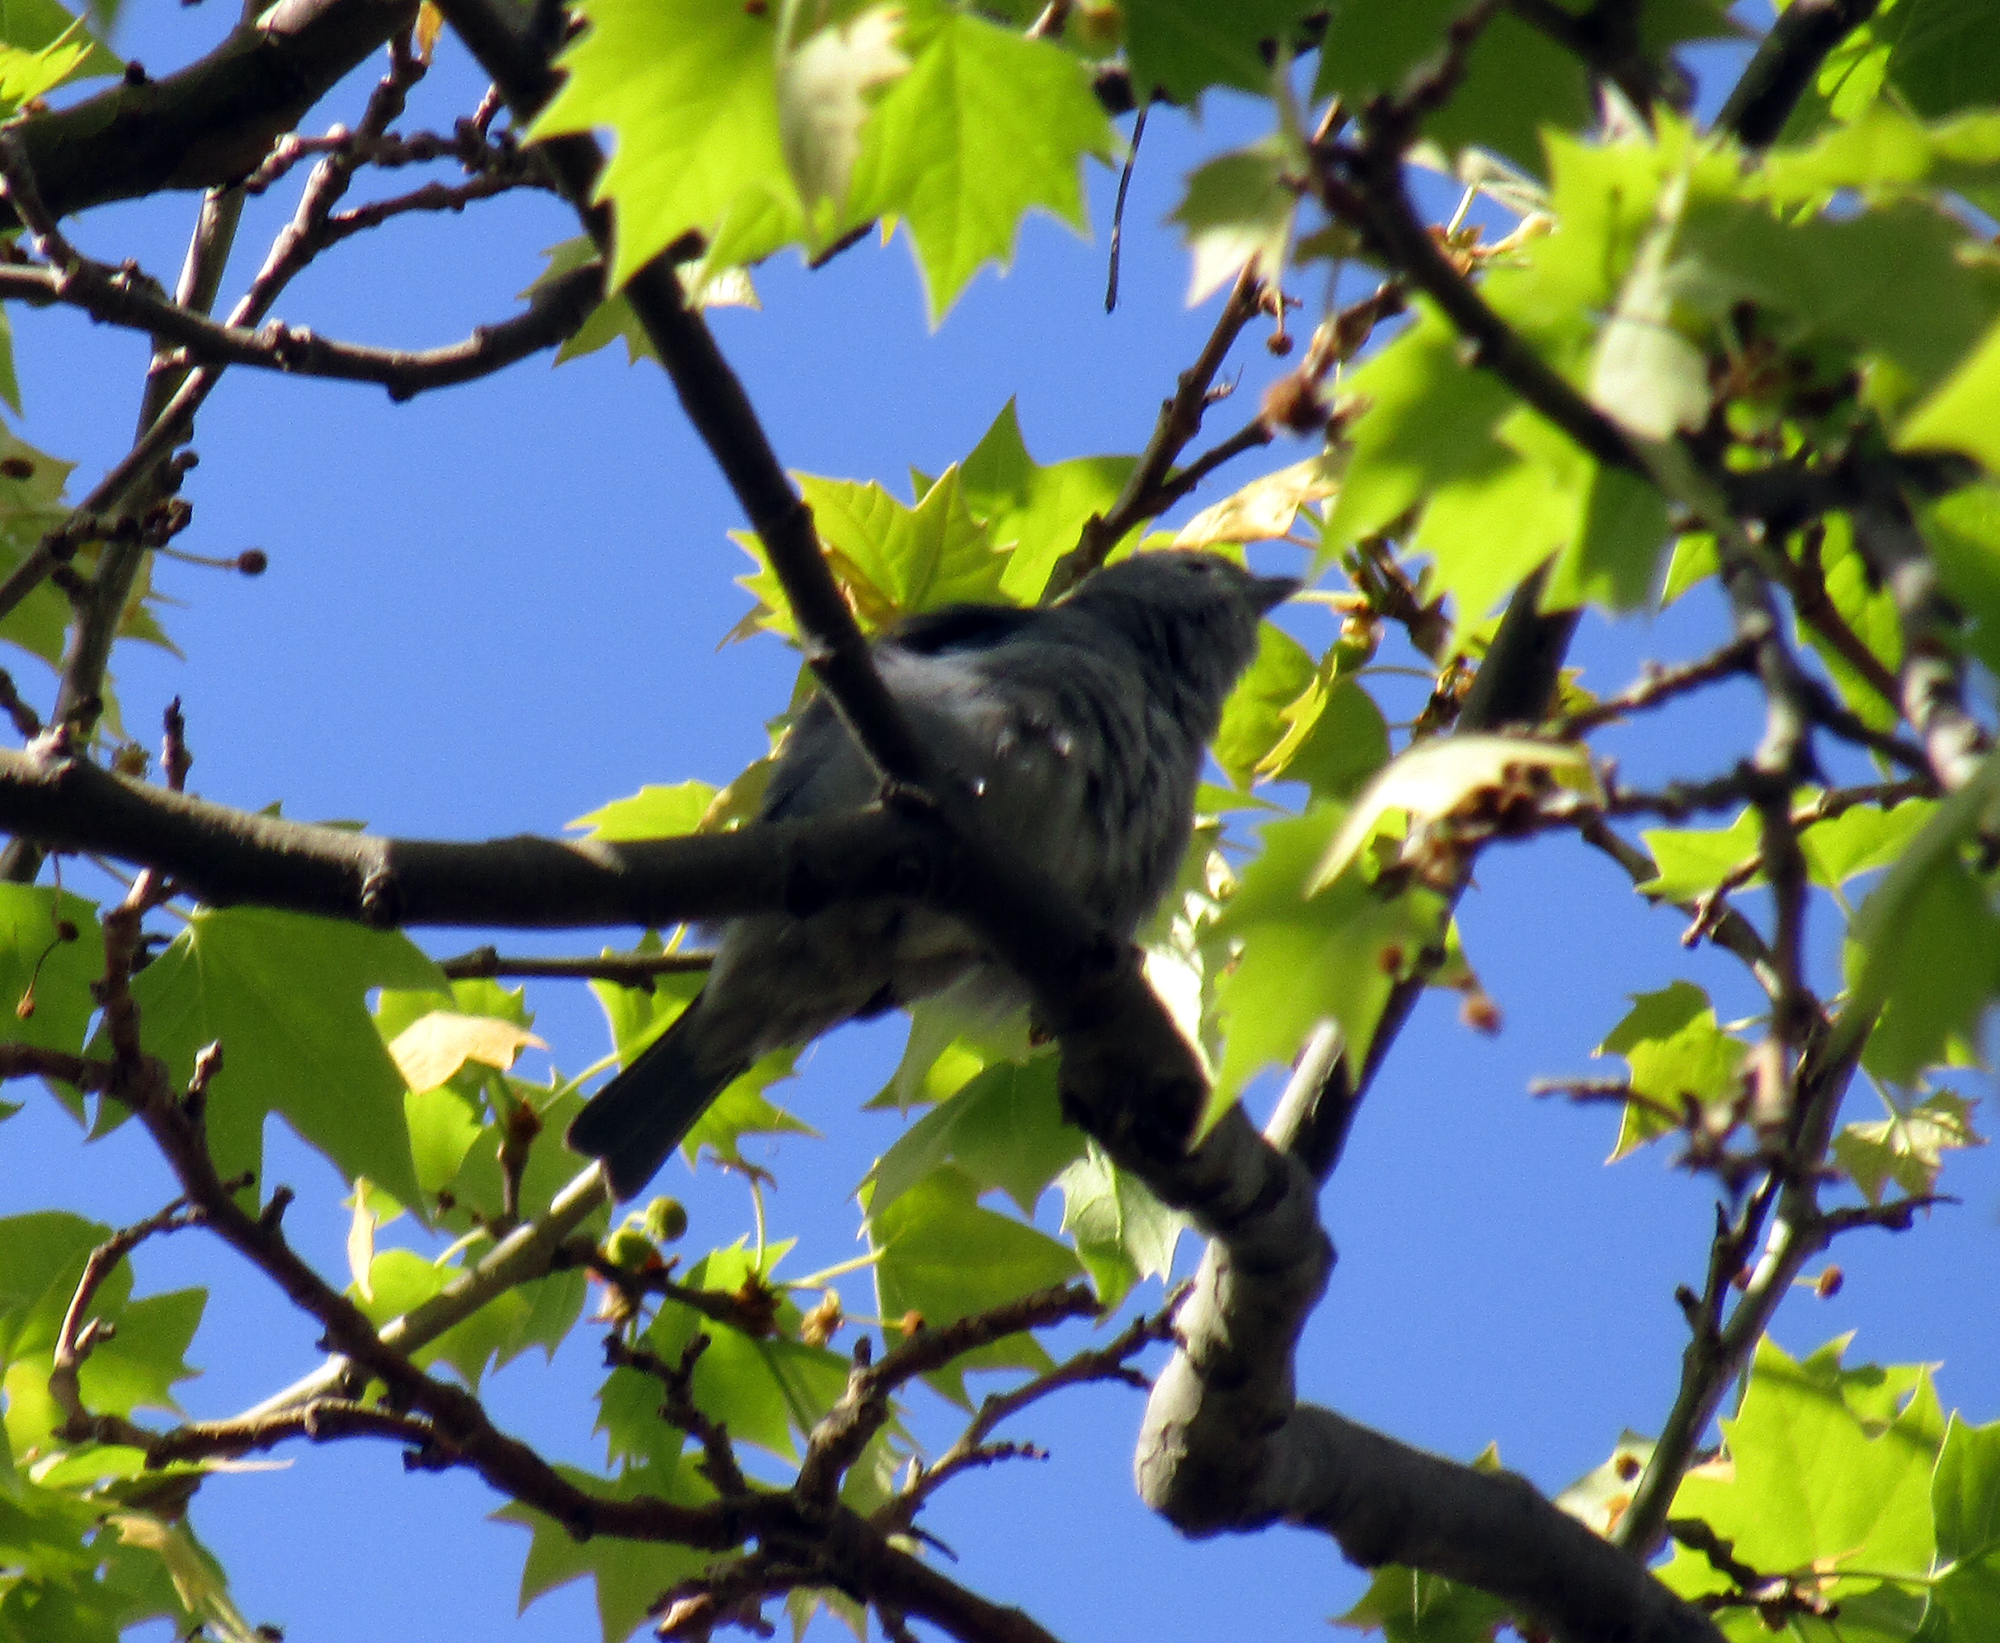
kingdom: Animalia
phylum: Chordata
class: Aves
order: Passeriformes
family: Thraupidae
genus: Thraupis
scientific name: Thraupis sayaca
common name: Sayaca tanager
